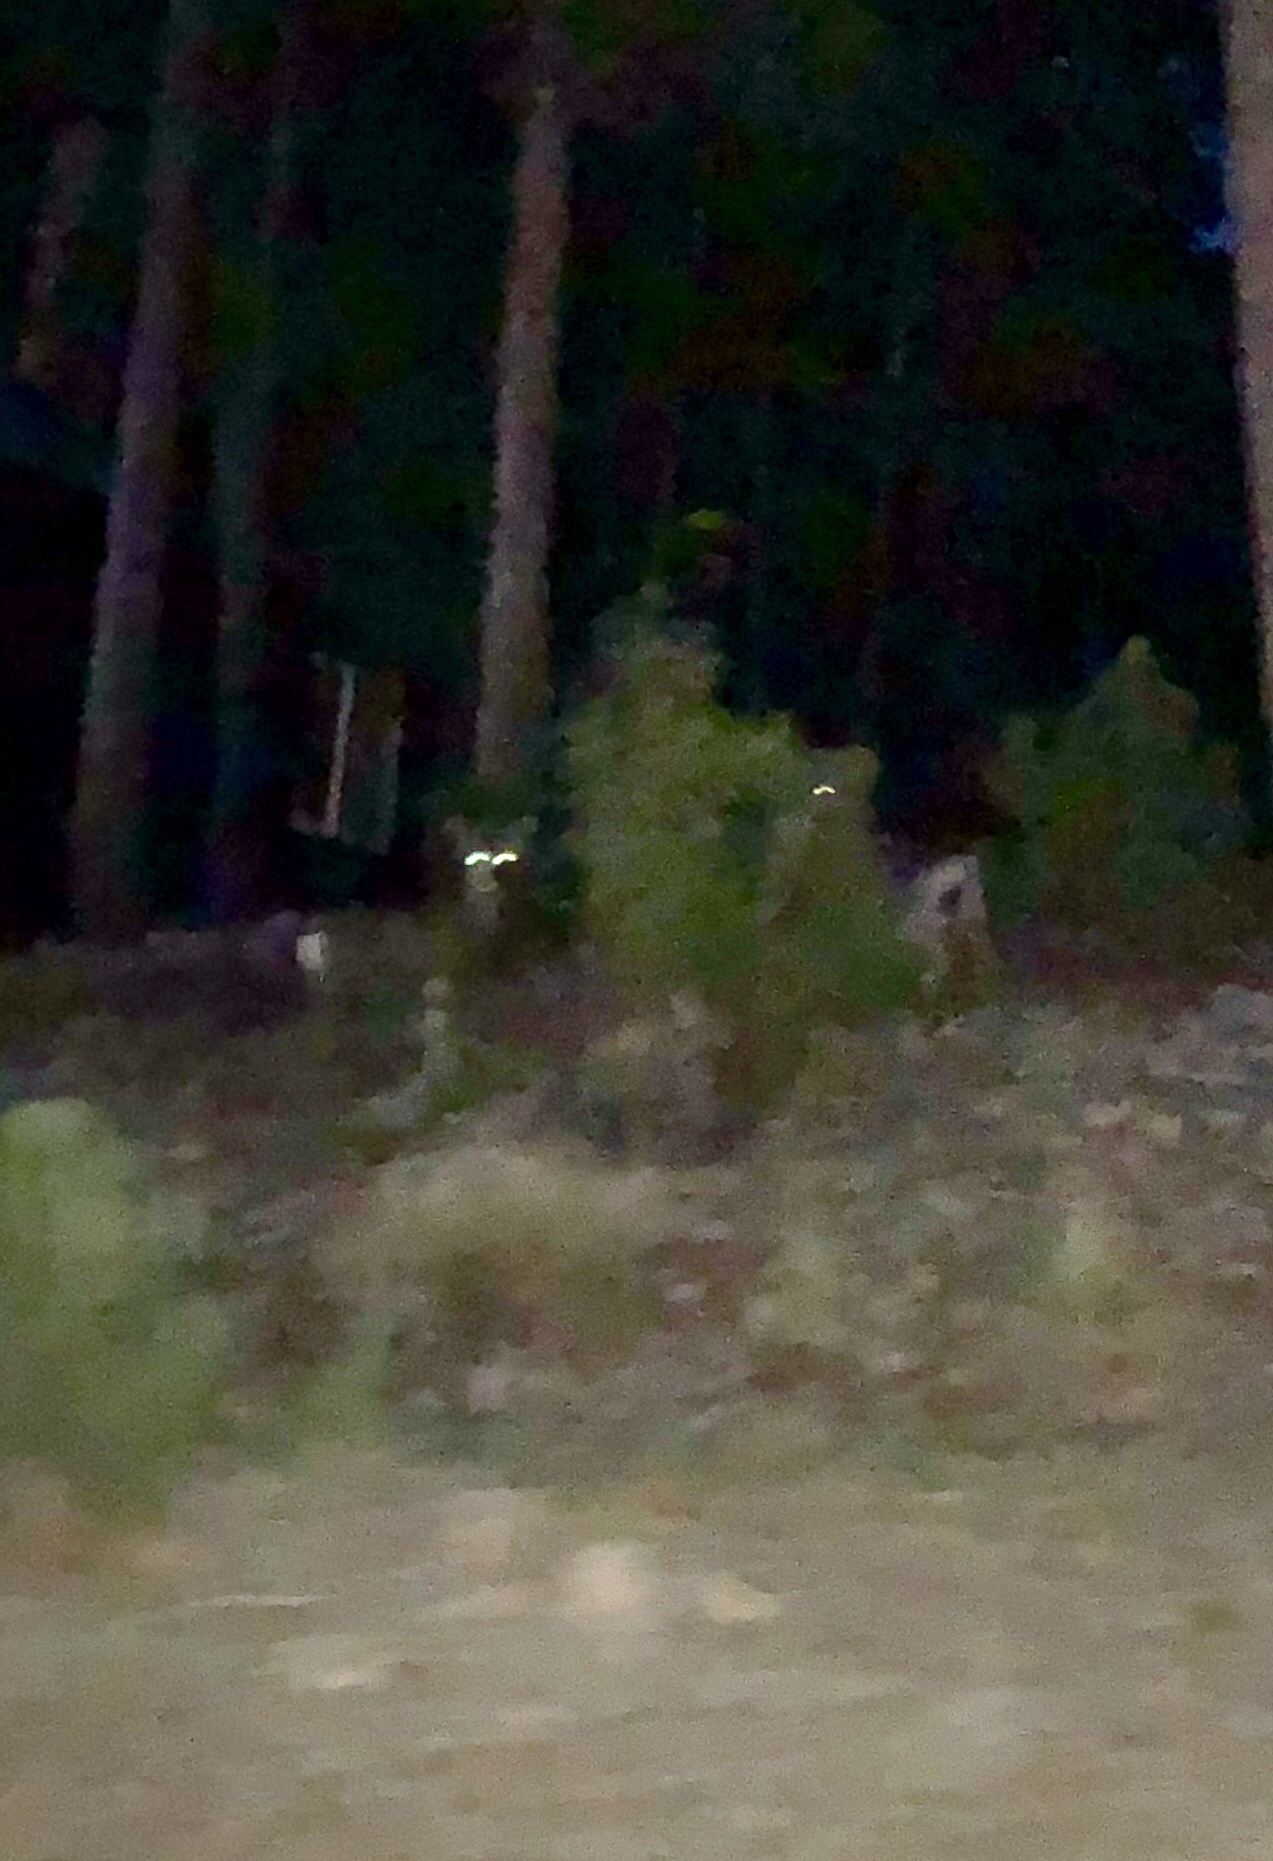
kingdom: Animalia
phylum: Chordata
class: Mammalia
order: Artiodactyla
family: Cervidae
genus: Odocoileus
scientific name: Odocoileus hemionus
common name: Mule deer
